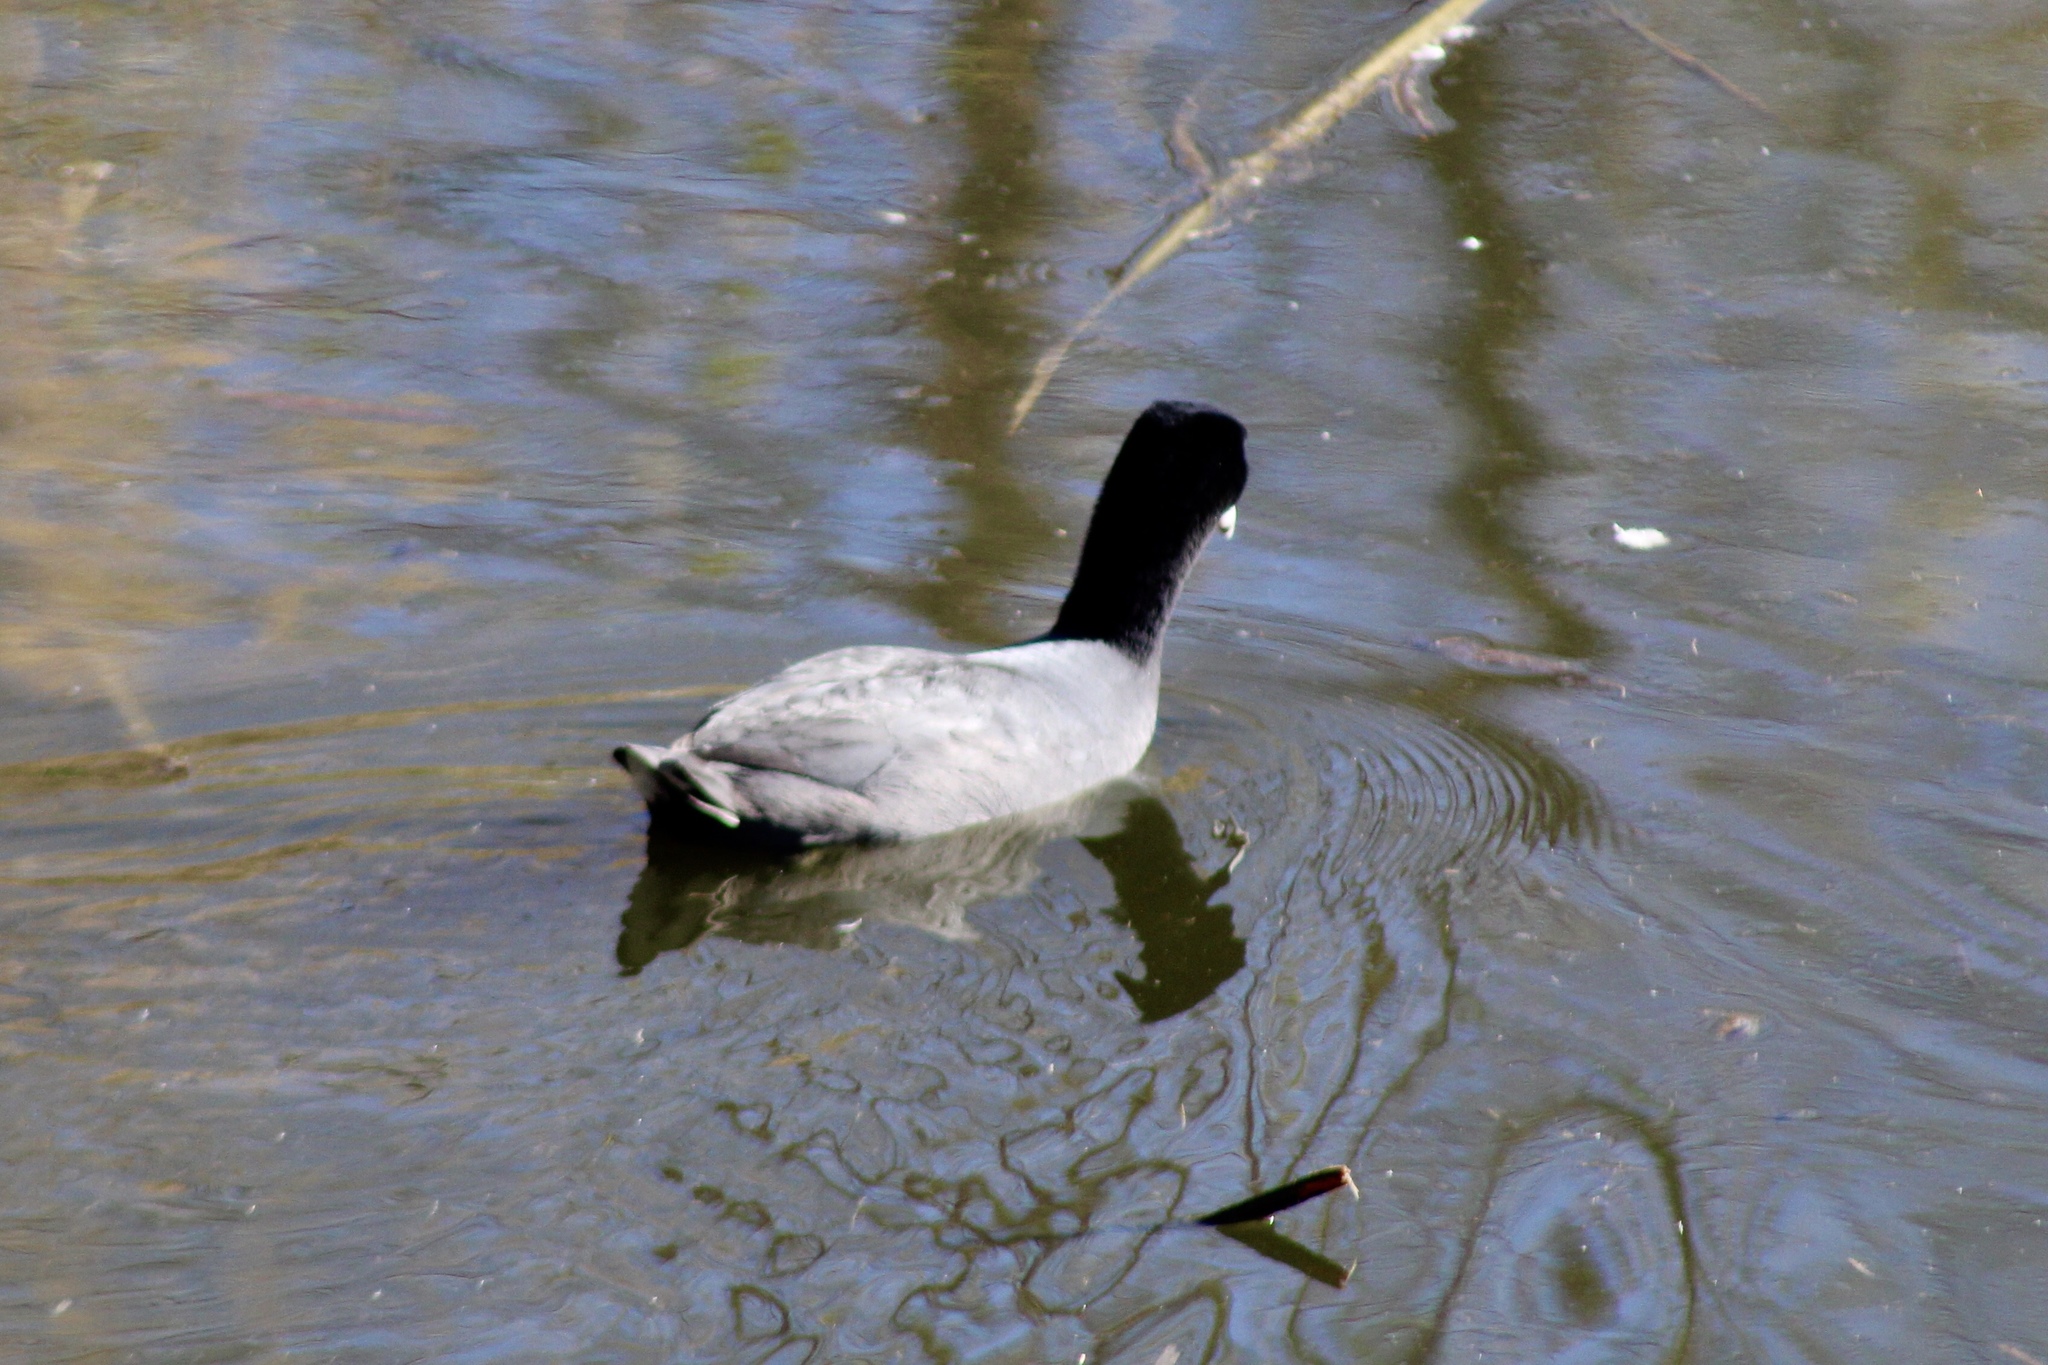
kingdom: Animalia
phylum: Chordata
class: Aves
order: Gruiformes
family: Rallidae
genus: Fulica
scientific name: Fulica americana
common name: American coot
